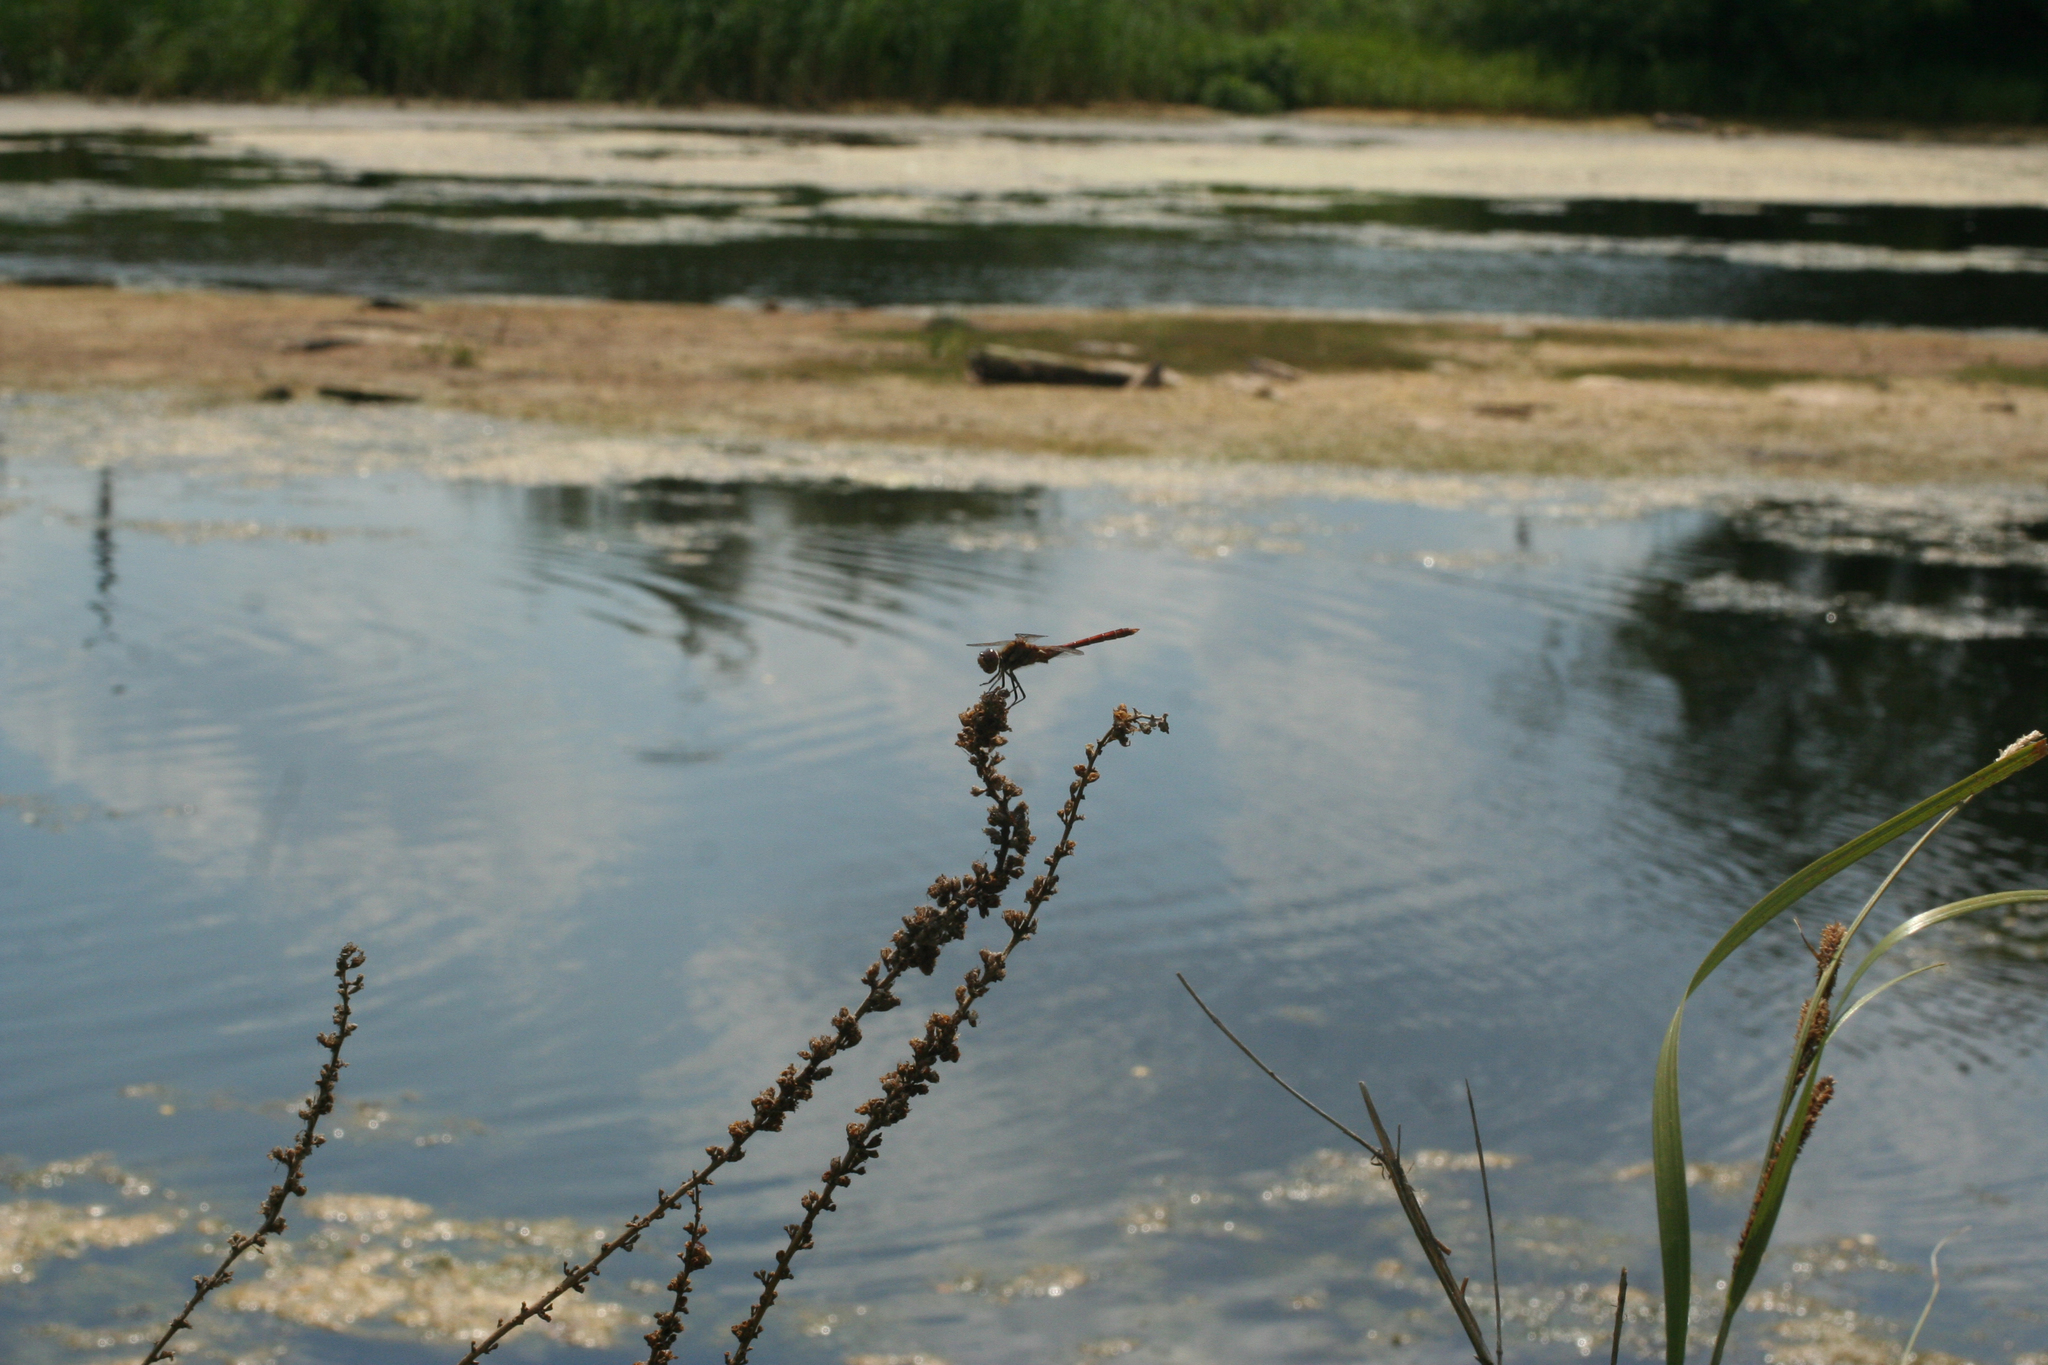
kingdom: Plantae
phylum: Tracheophyta
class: Magnoliopsida
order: Myrtales
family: Lythraceae
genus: Lythrum
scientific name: Lythrum salicaria
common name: Purple loosestrife
